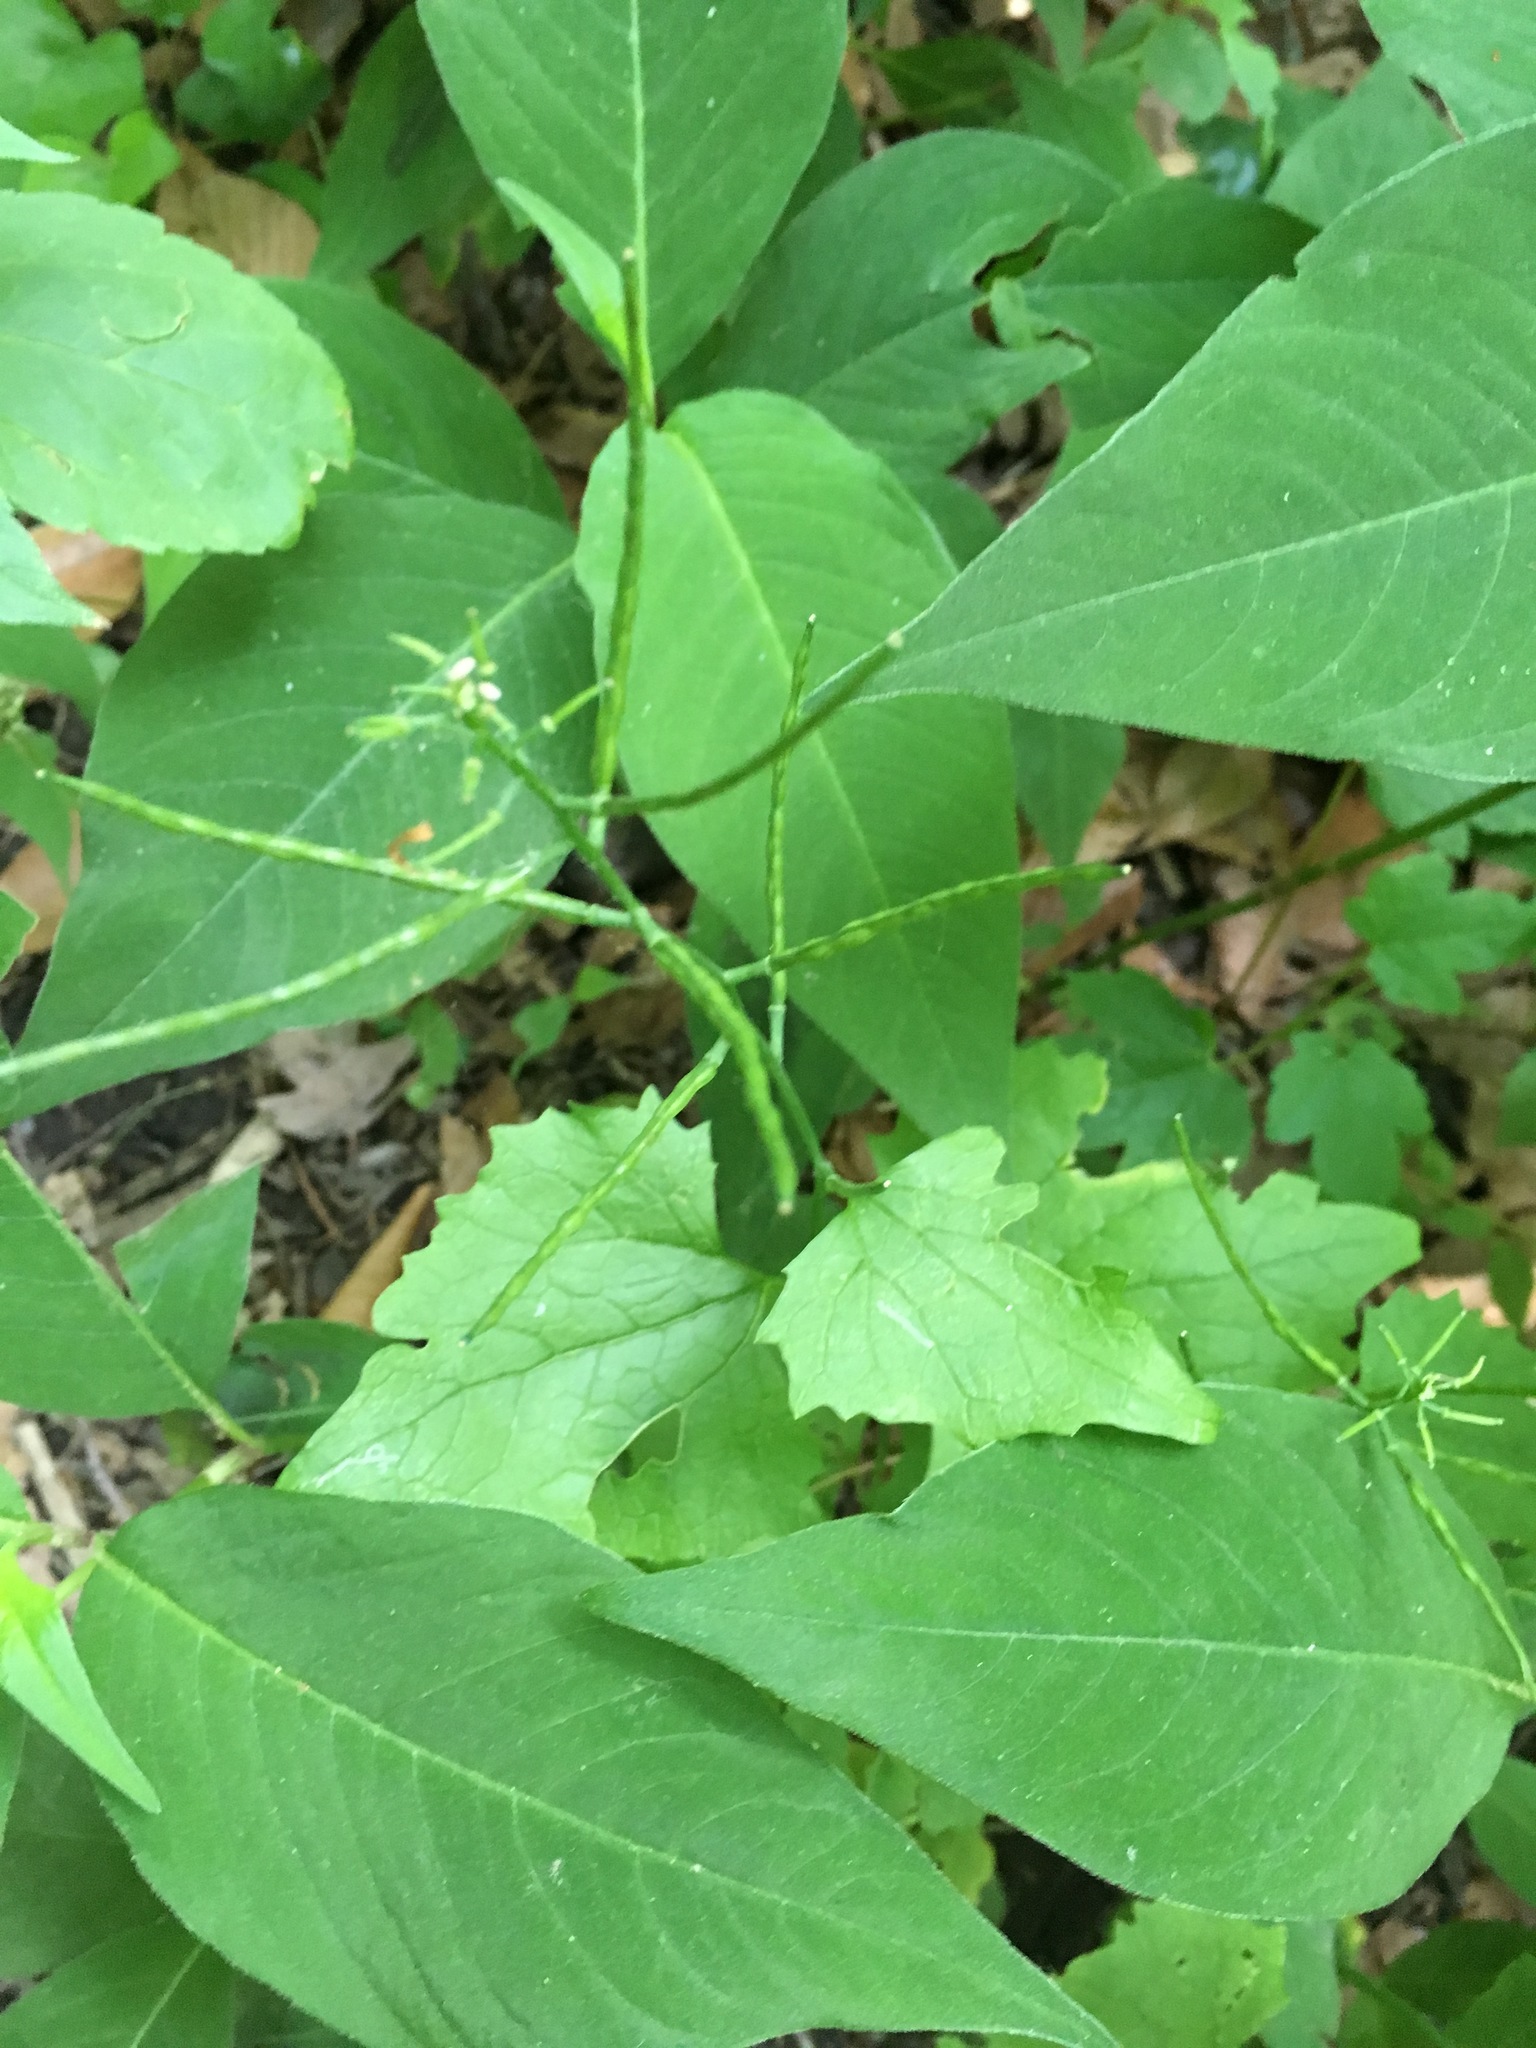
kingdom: Plantae
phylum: Tracheophyta
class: Magnoliopsida
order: Brassicales
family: Brassicaceae
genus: Alliaria
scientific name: Alliaria petiolata
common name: Garlic mustard
